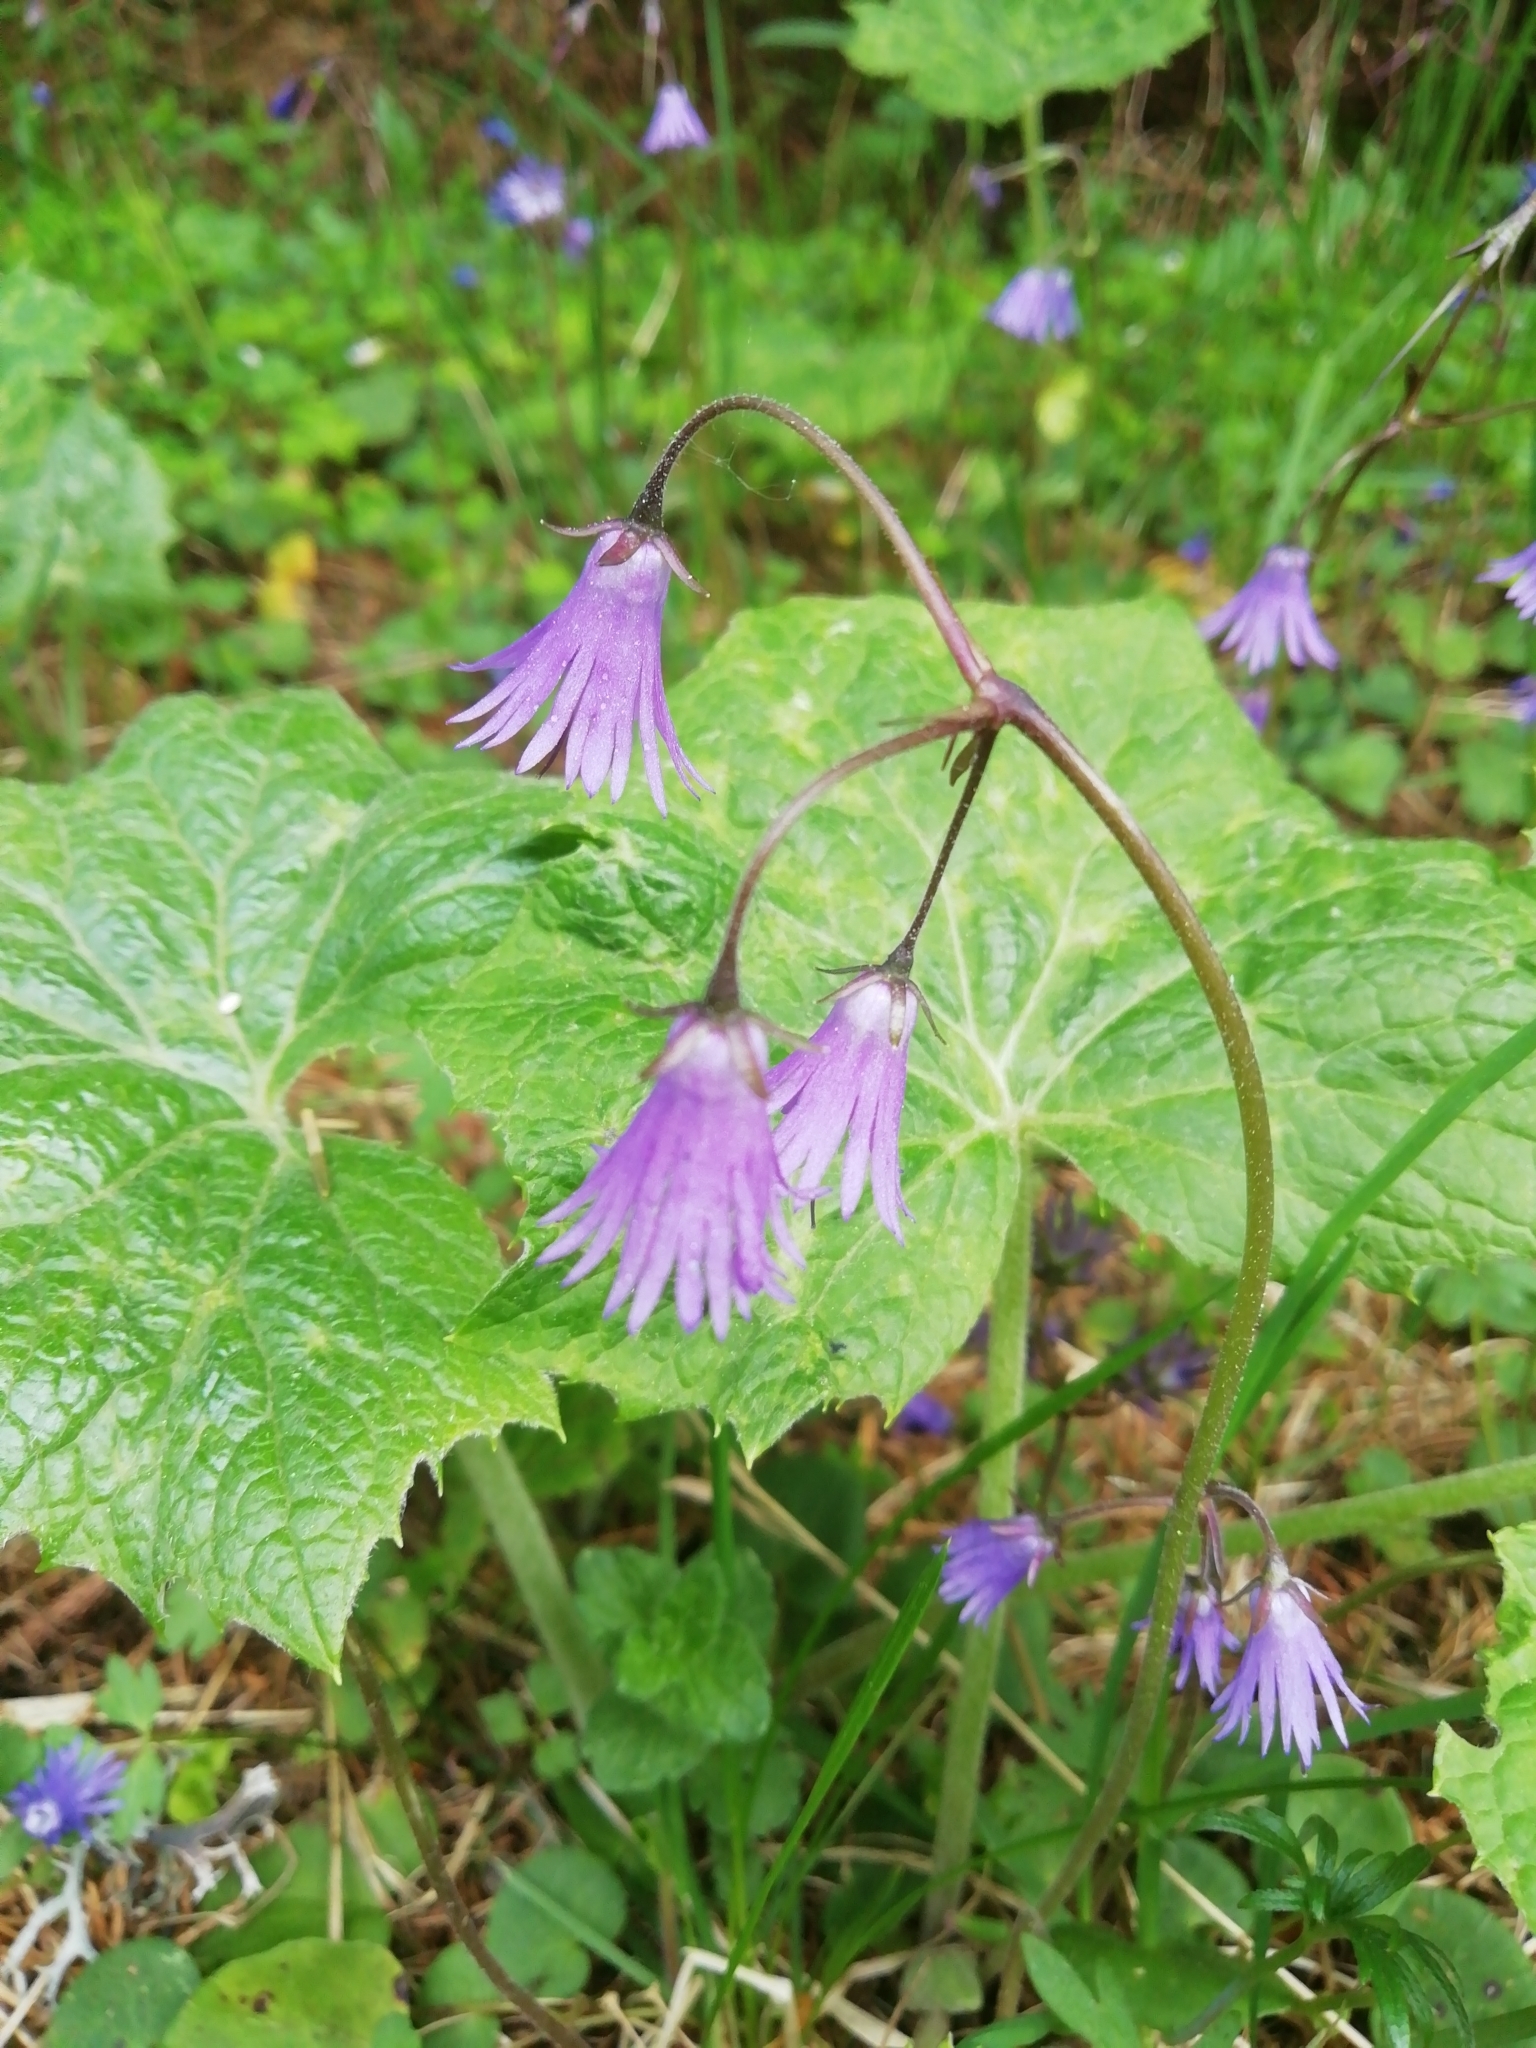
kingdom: Plantae
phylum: Tracheophyta
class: Magnoliopsida
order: Ericales
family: Primulaceae
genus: Soldanella
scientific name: Soldanella montana
